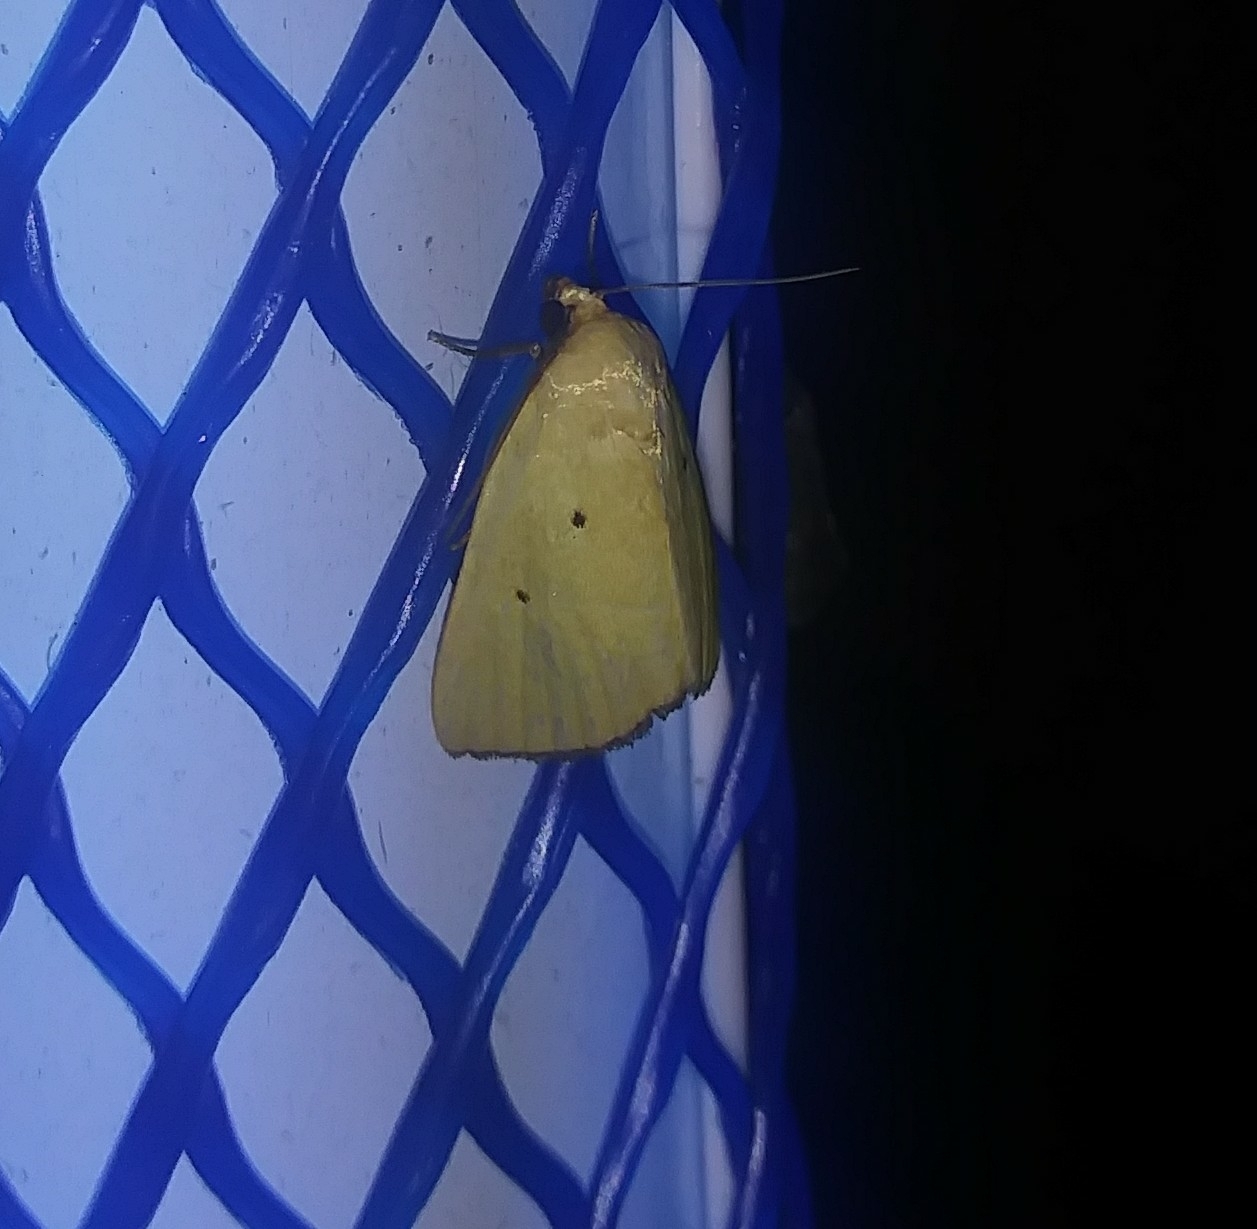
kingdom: Animalia
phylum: Arthropoda
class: Insecta
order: Lepidoptera
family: Noctuidae
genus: Marimatha
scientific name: Marimatha nigrofimbria
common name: Black-bordered lemon moth
